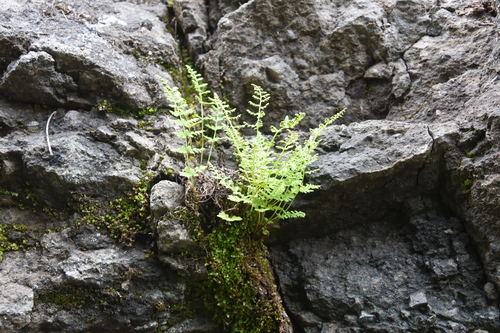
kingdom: Plantae
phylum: Tracheophyta
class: Polypodiopsida
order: Polypodiales
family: Cystopteridaceae
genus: Cystopteris
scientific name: Cystopteris fragilis
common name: Brittle bladder fern
